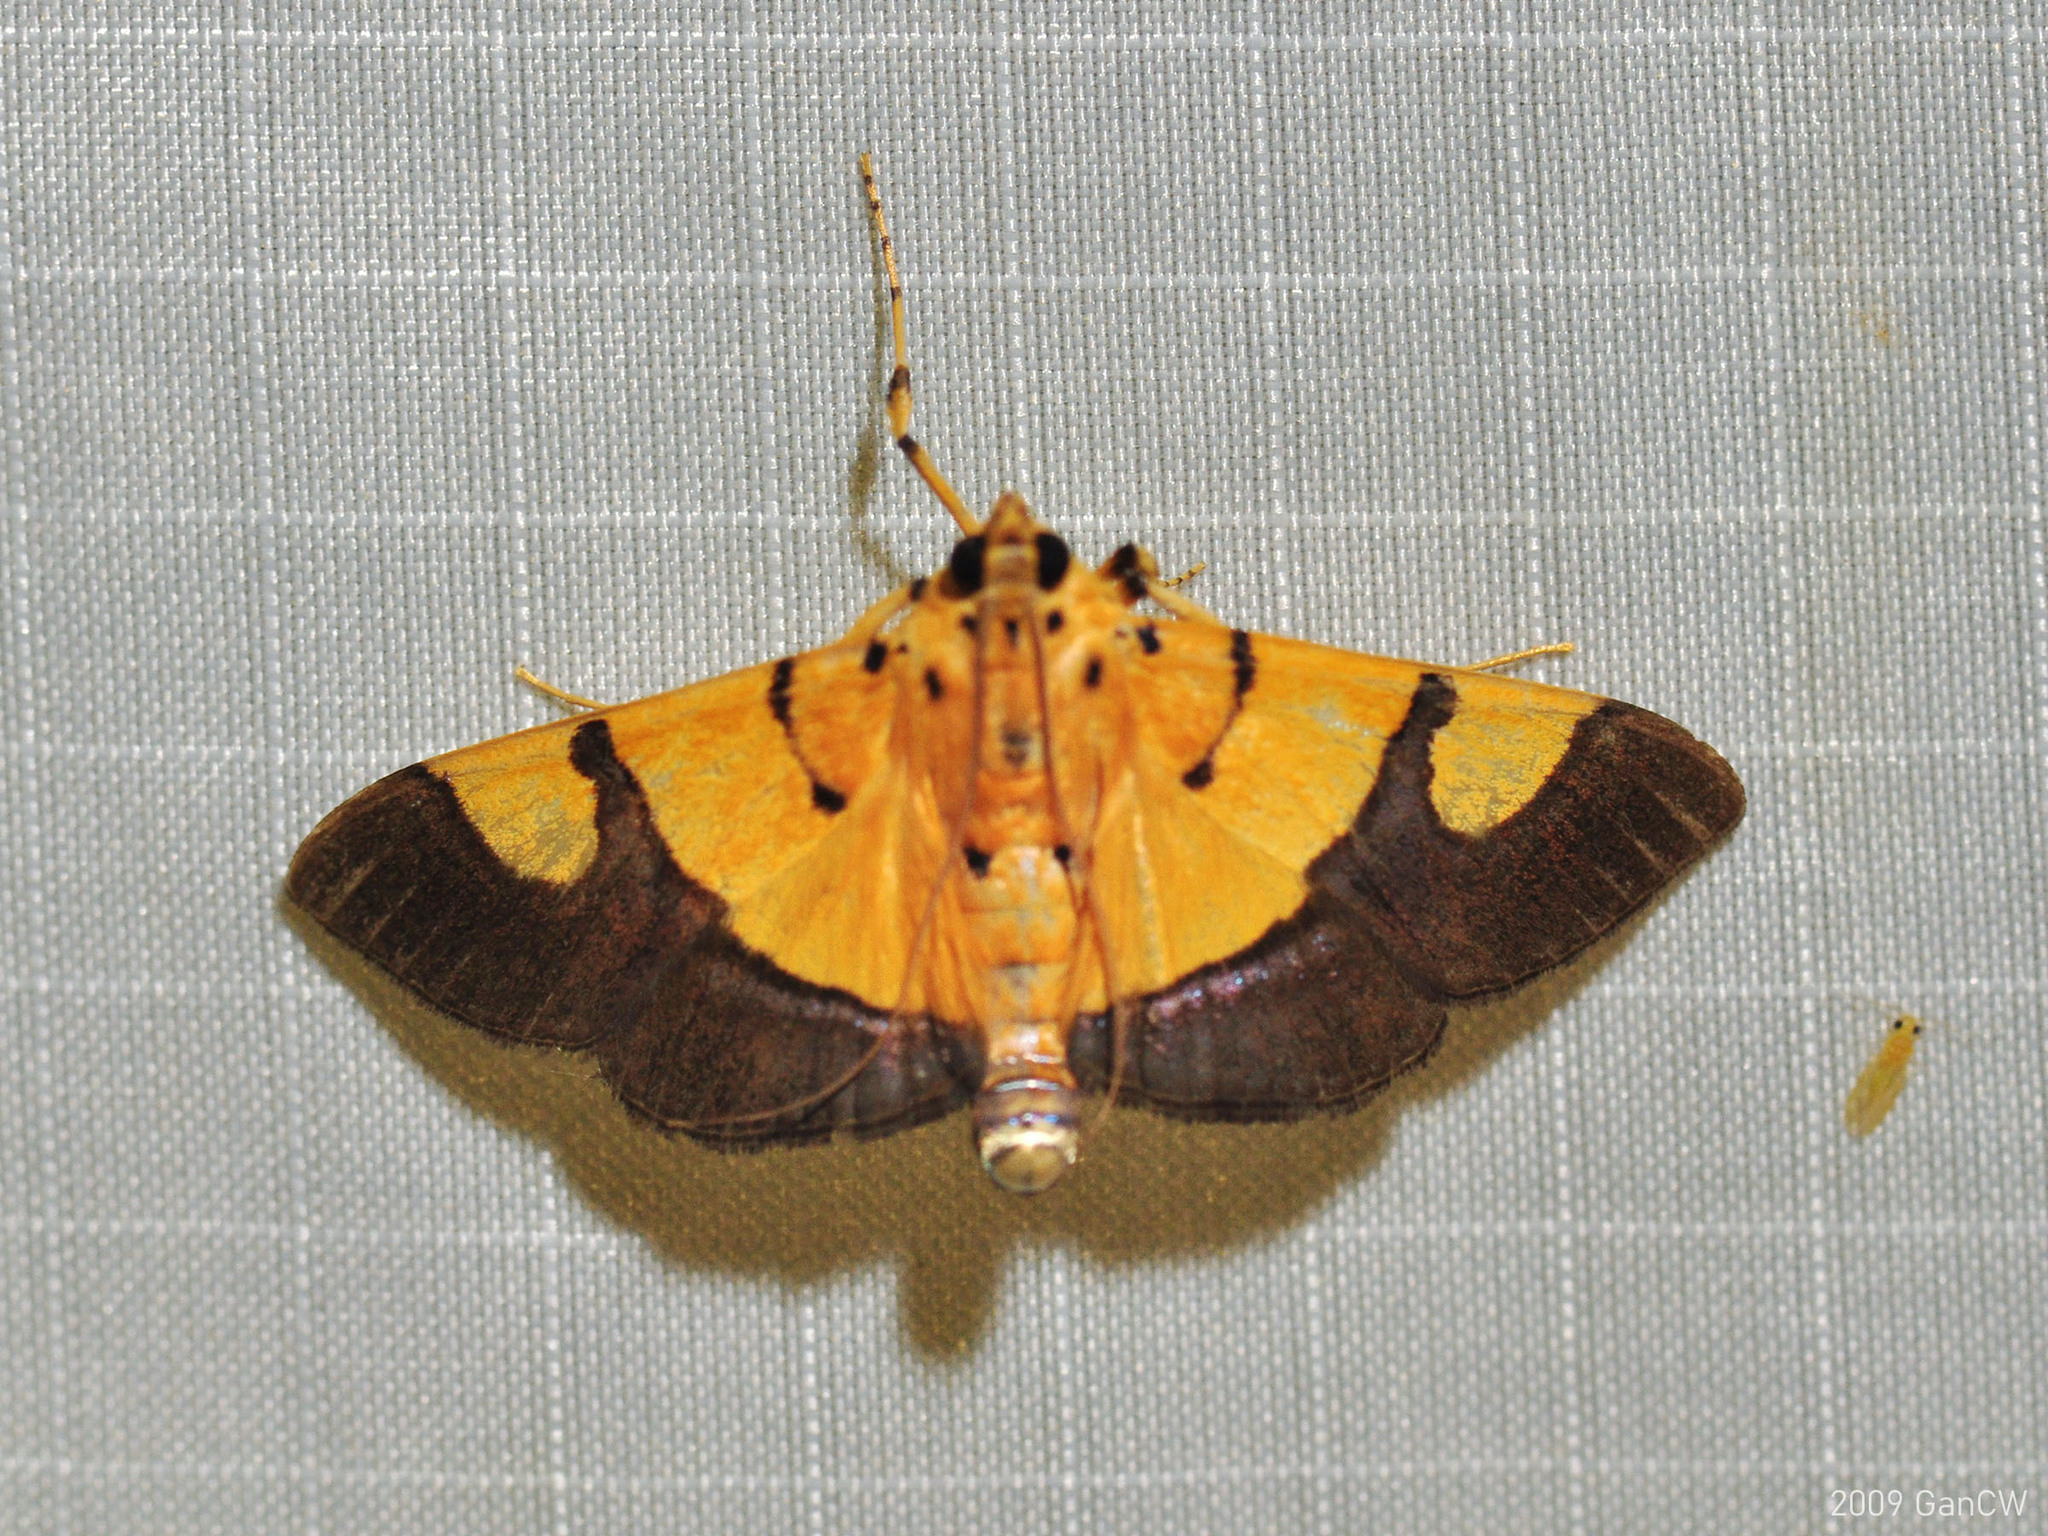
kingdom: Animalia
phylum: Arthropoda
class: Insecta
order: Lepidoptera
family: Crambidae
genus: Botyodes
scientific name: Botyodes
